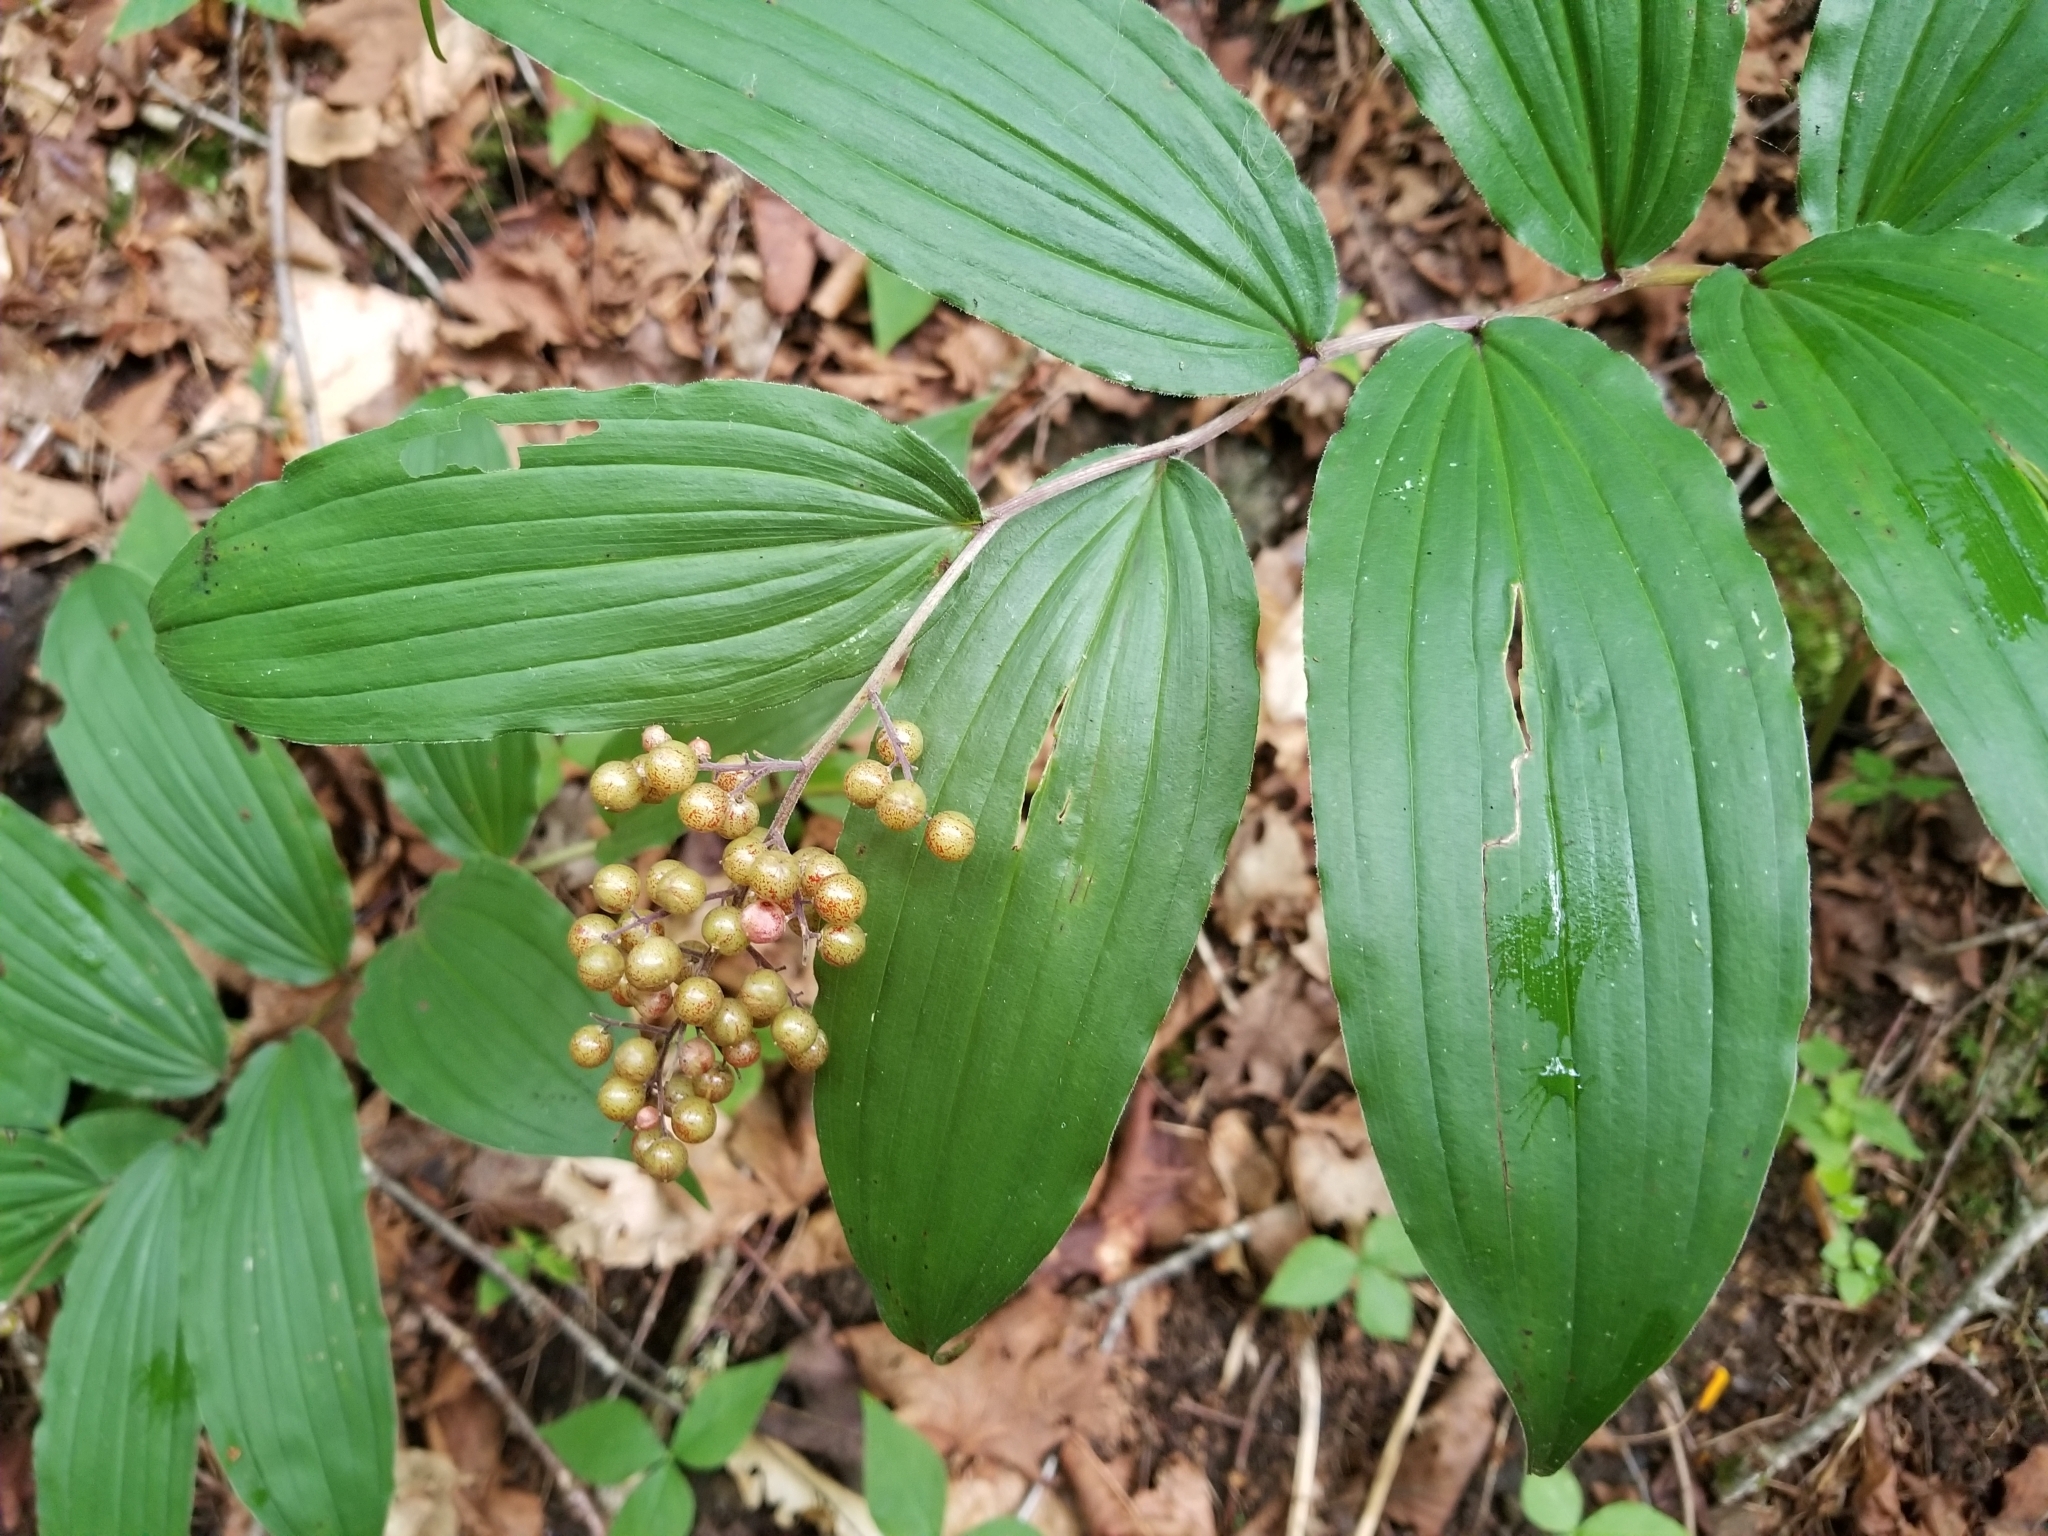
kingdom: Plantae
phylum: Tracheophyta
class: Liliopsida
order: Asparagales
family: Asparagaceae
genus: Maianthemum
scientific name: Maianthemum racemosum
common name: False spikenard
